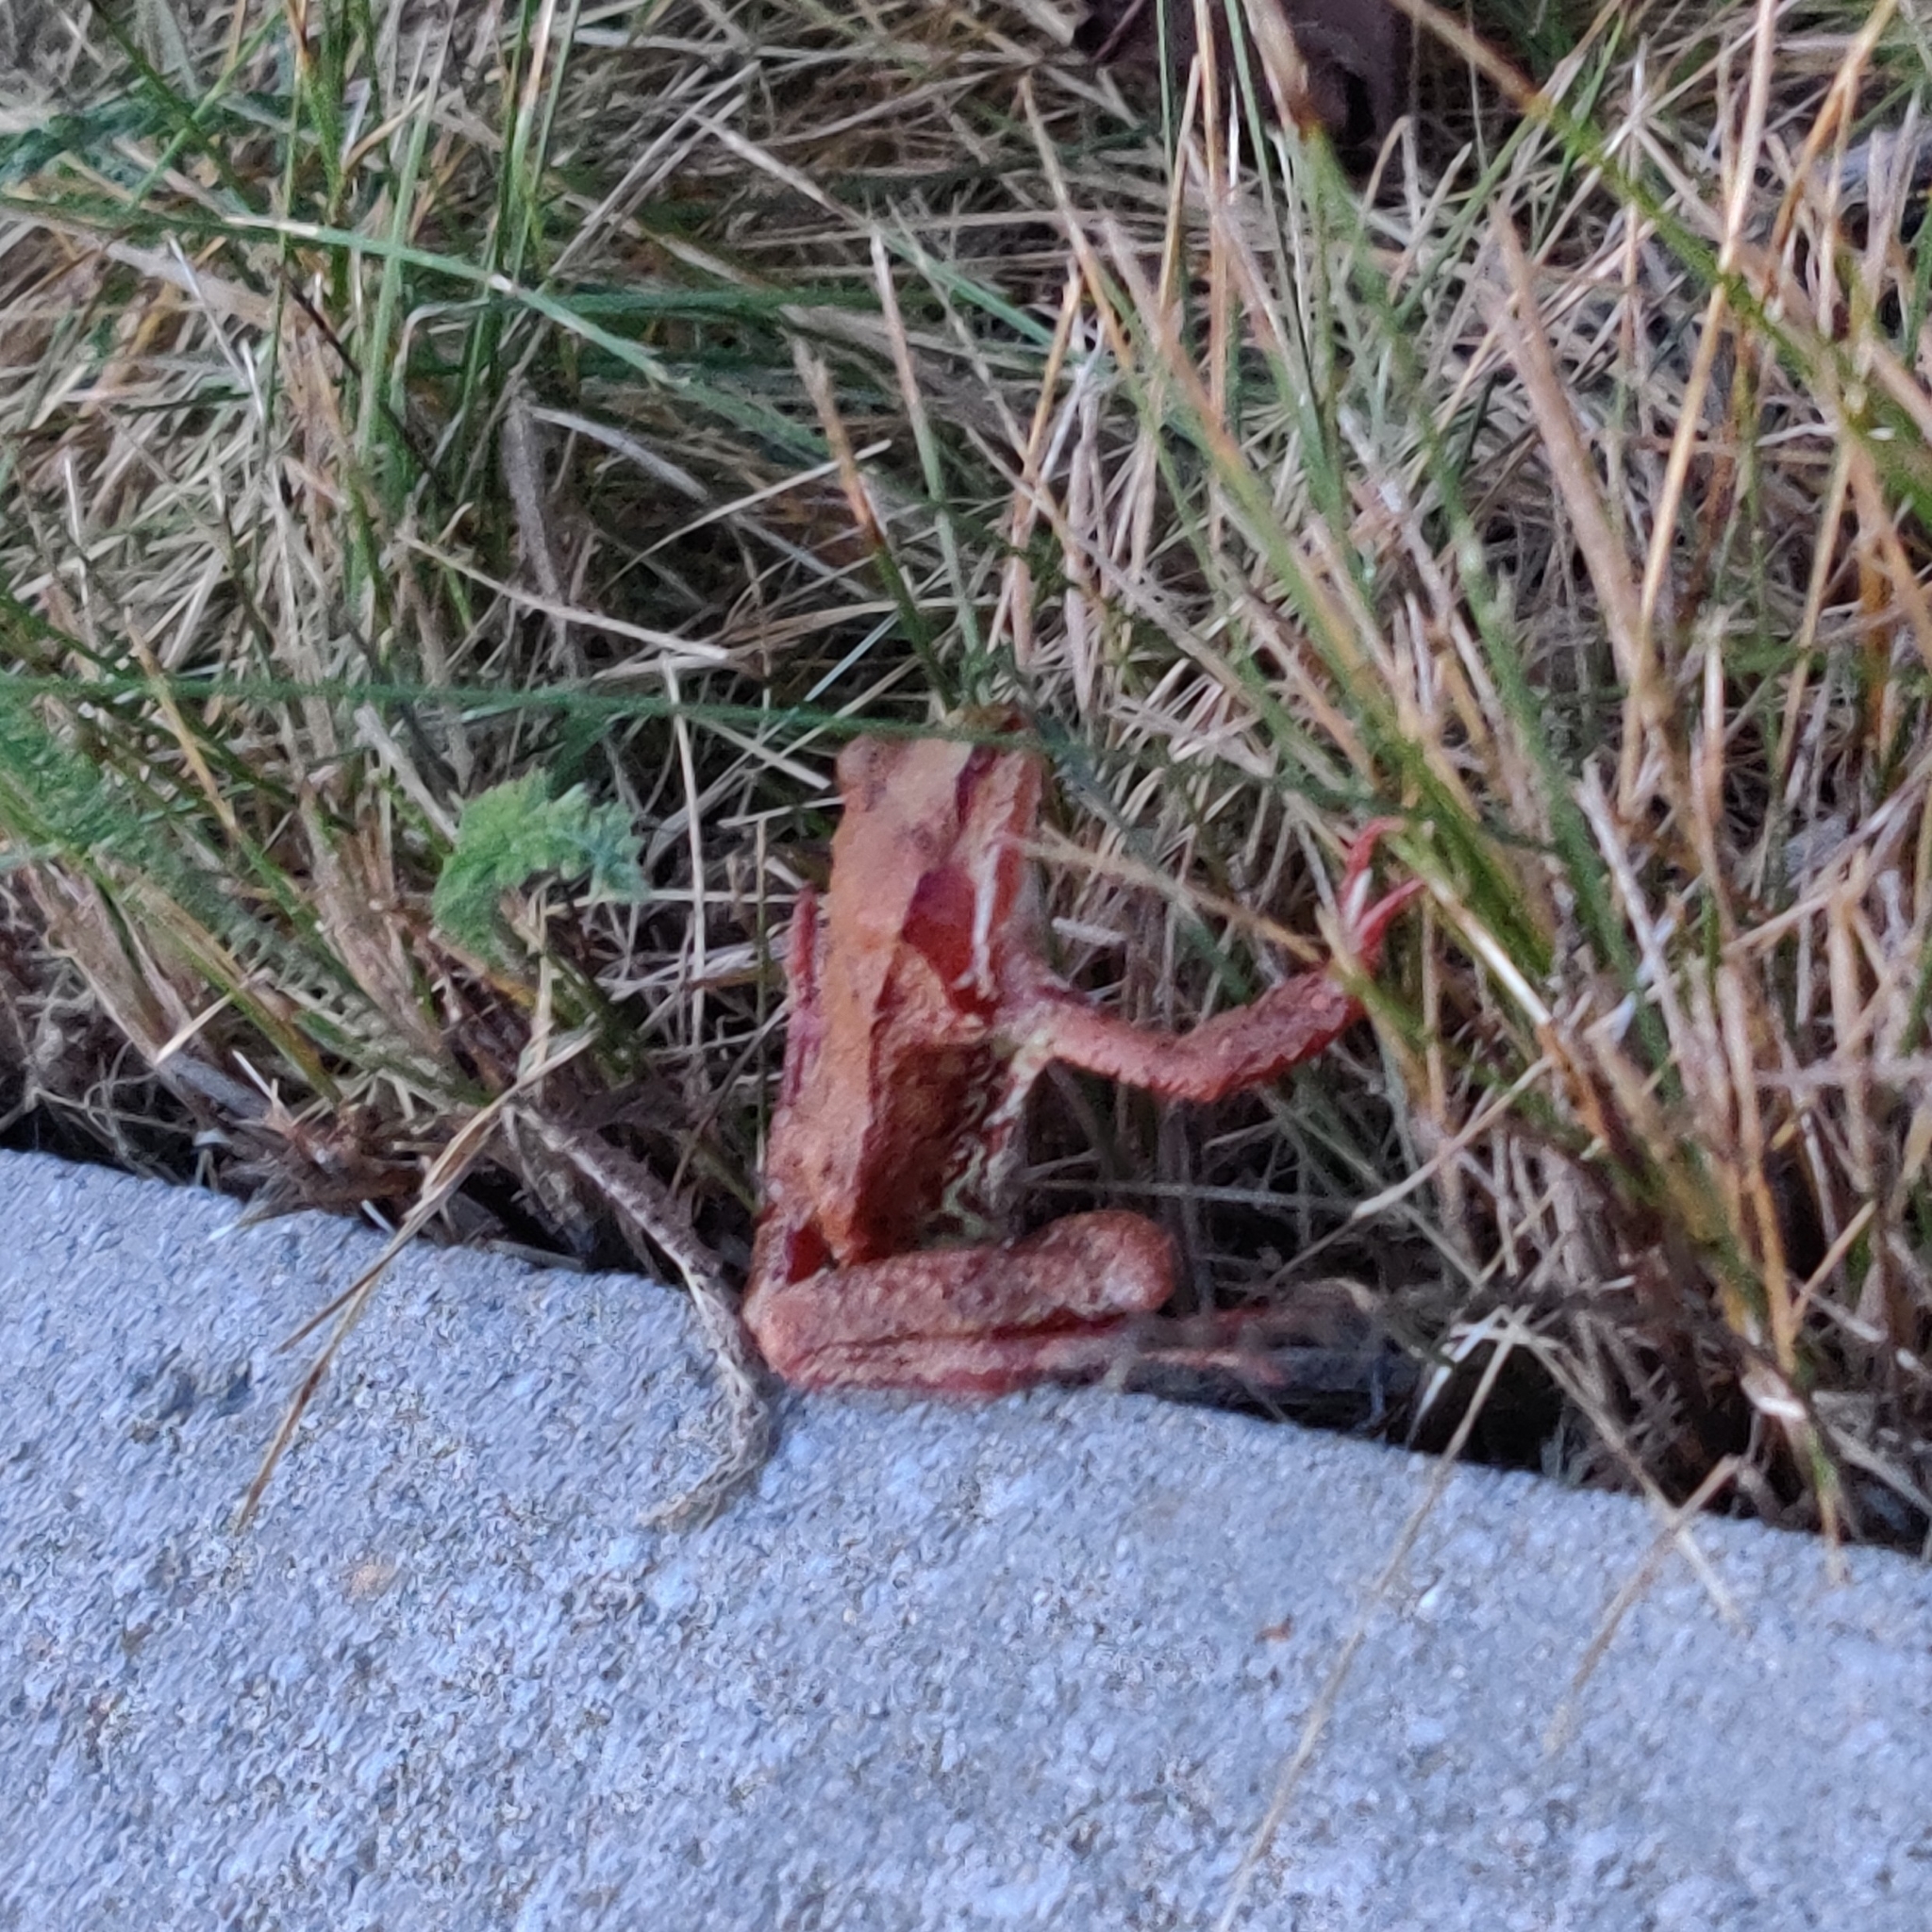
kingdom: Animalia
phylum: Chordata
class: Amphibia
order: Anura
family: Ranidae
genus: Rana
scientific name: Rana temporaria
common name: Common frog
